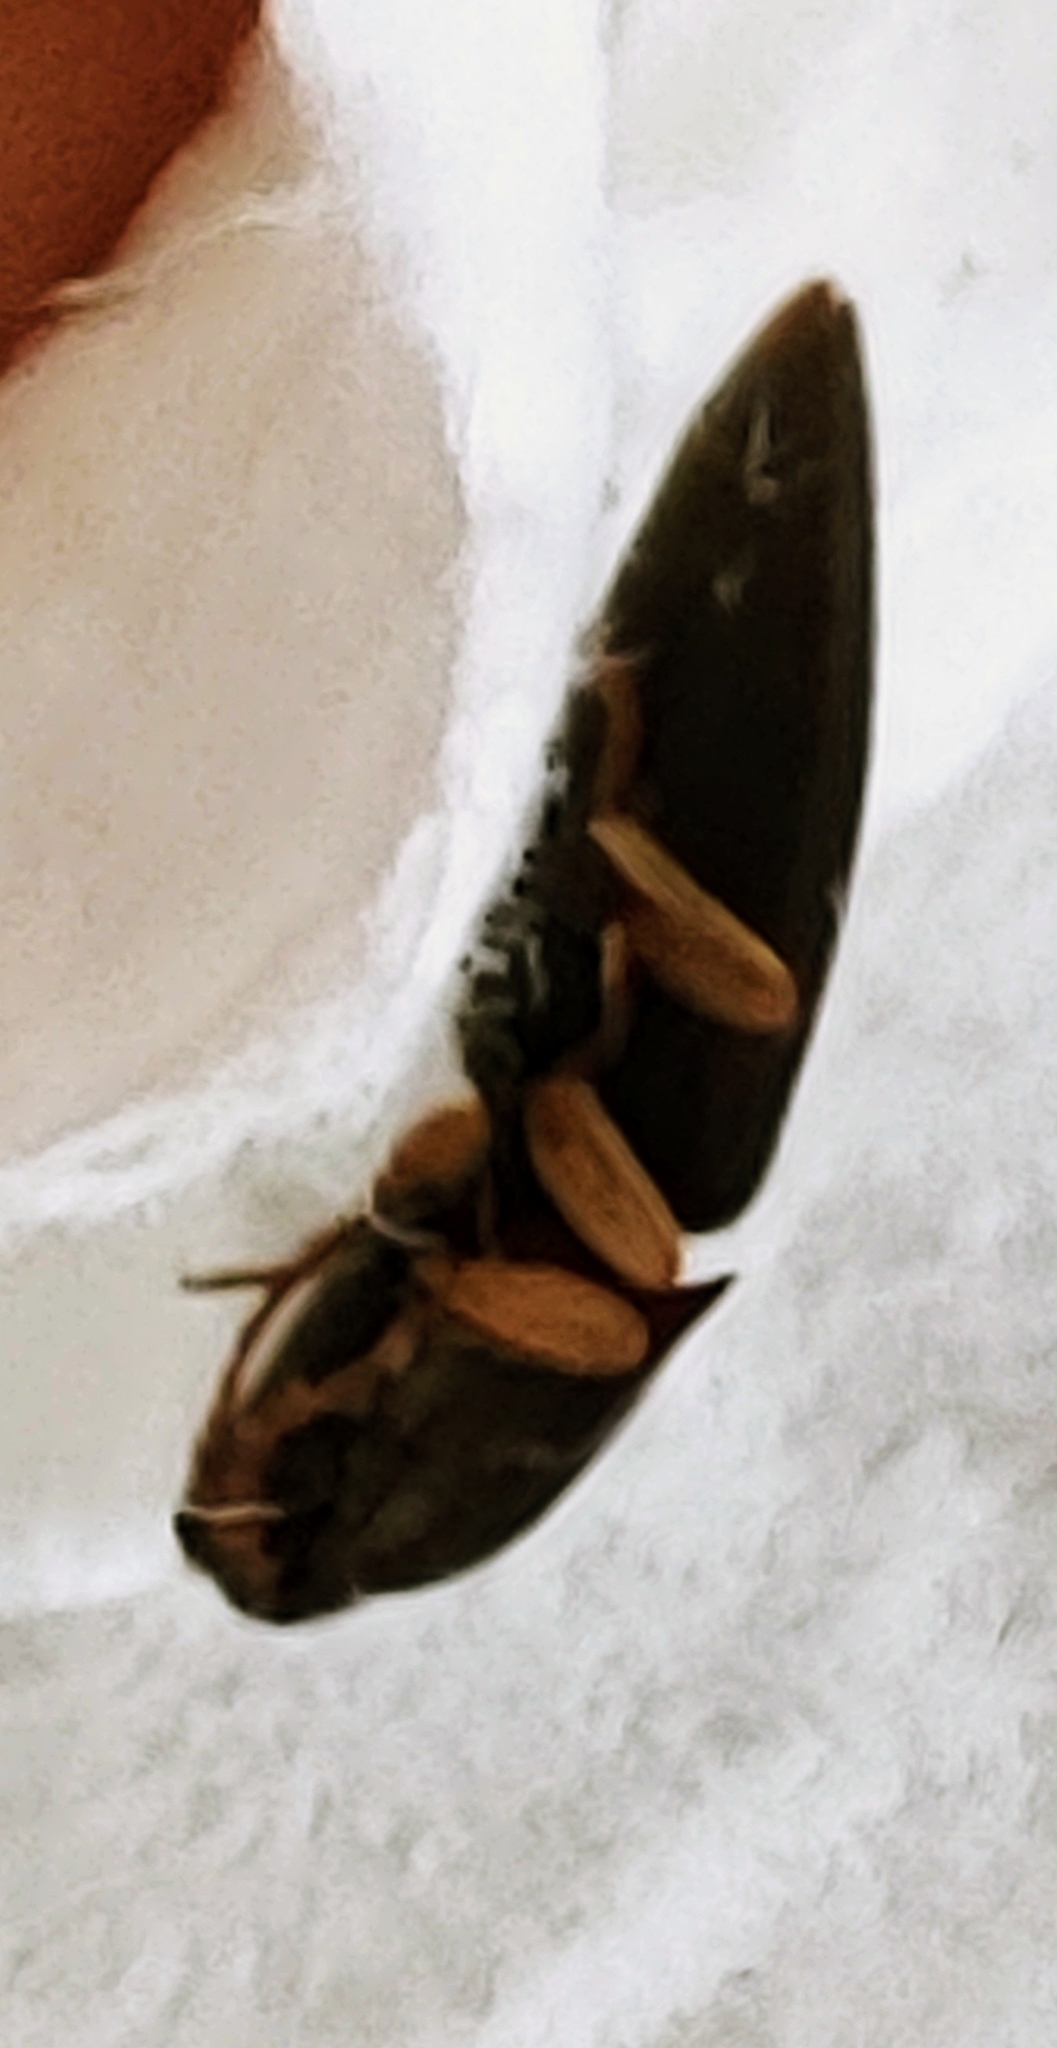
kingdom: Animalia
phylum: Arthropoda
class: Insecta
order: Coleoptera
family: Elateridae
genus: Heteroderes
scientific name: Heteroderes amplicollis
